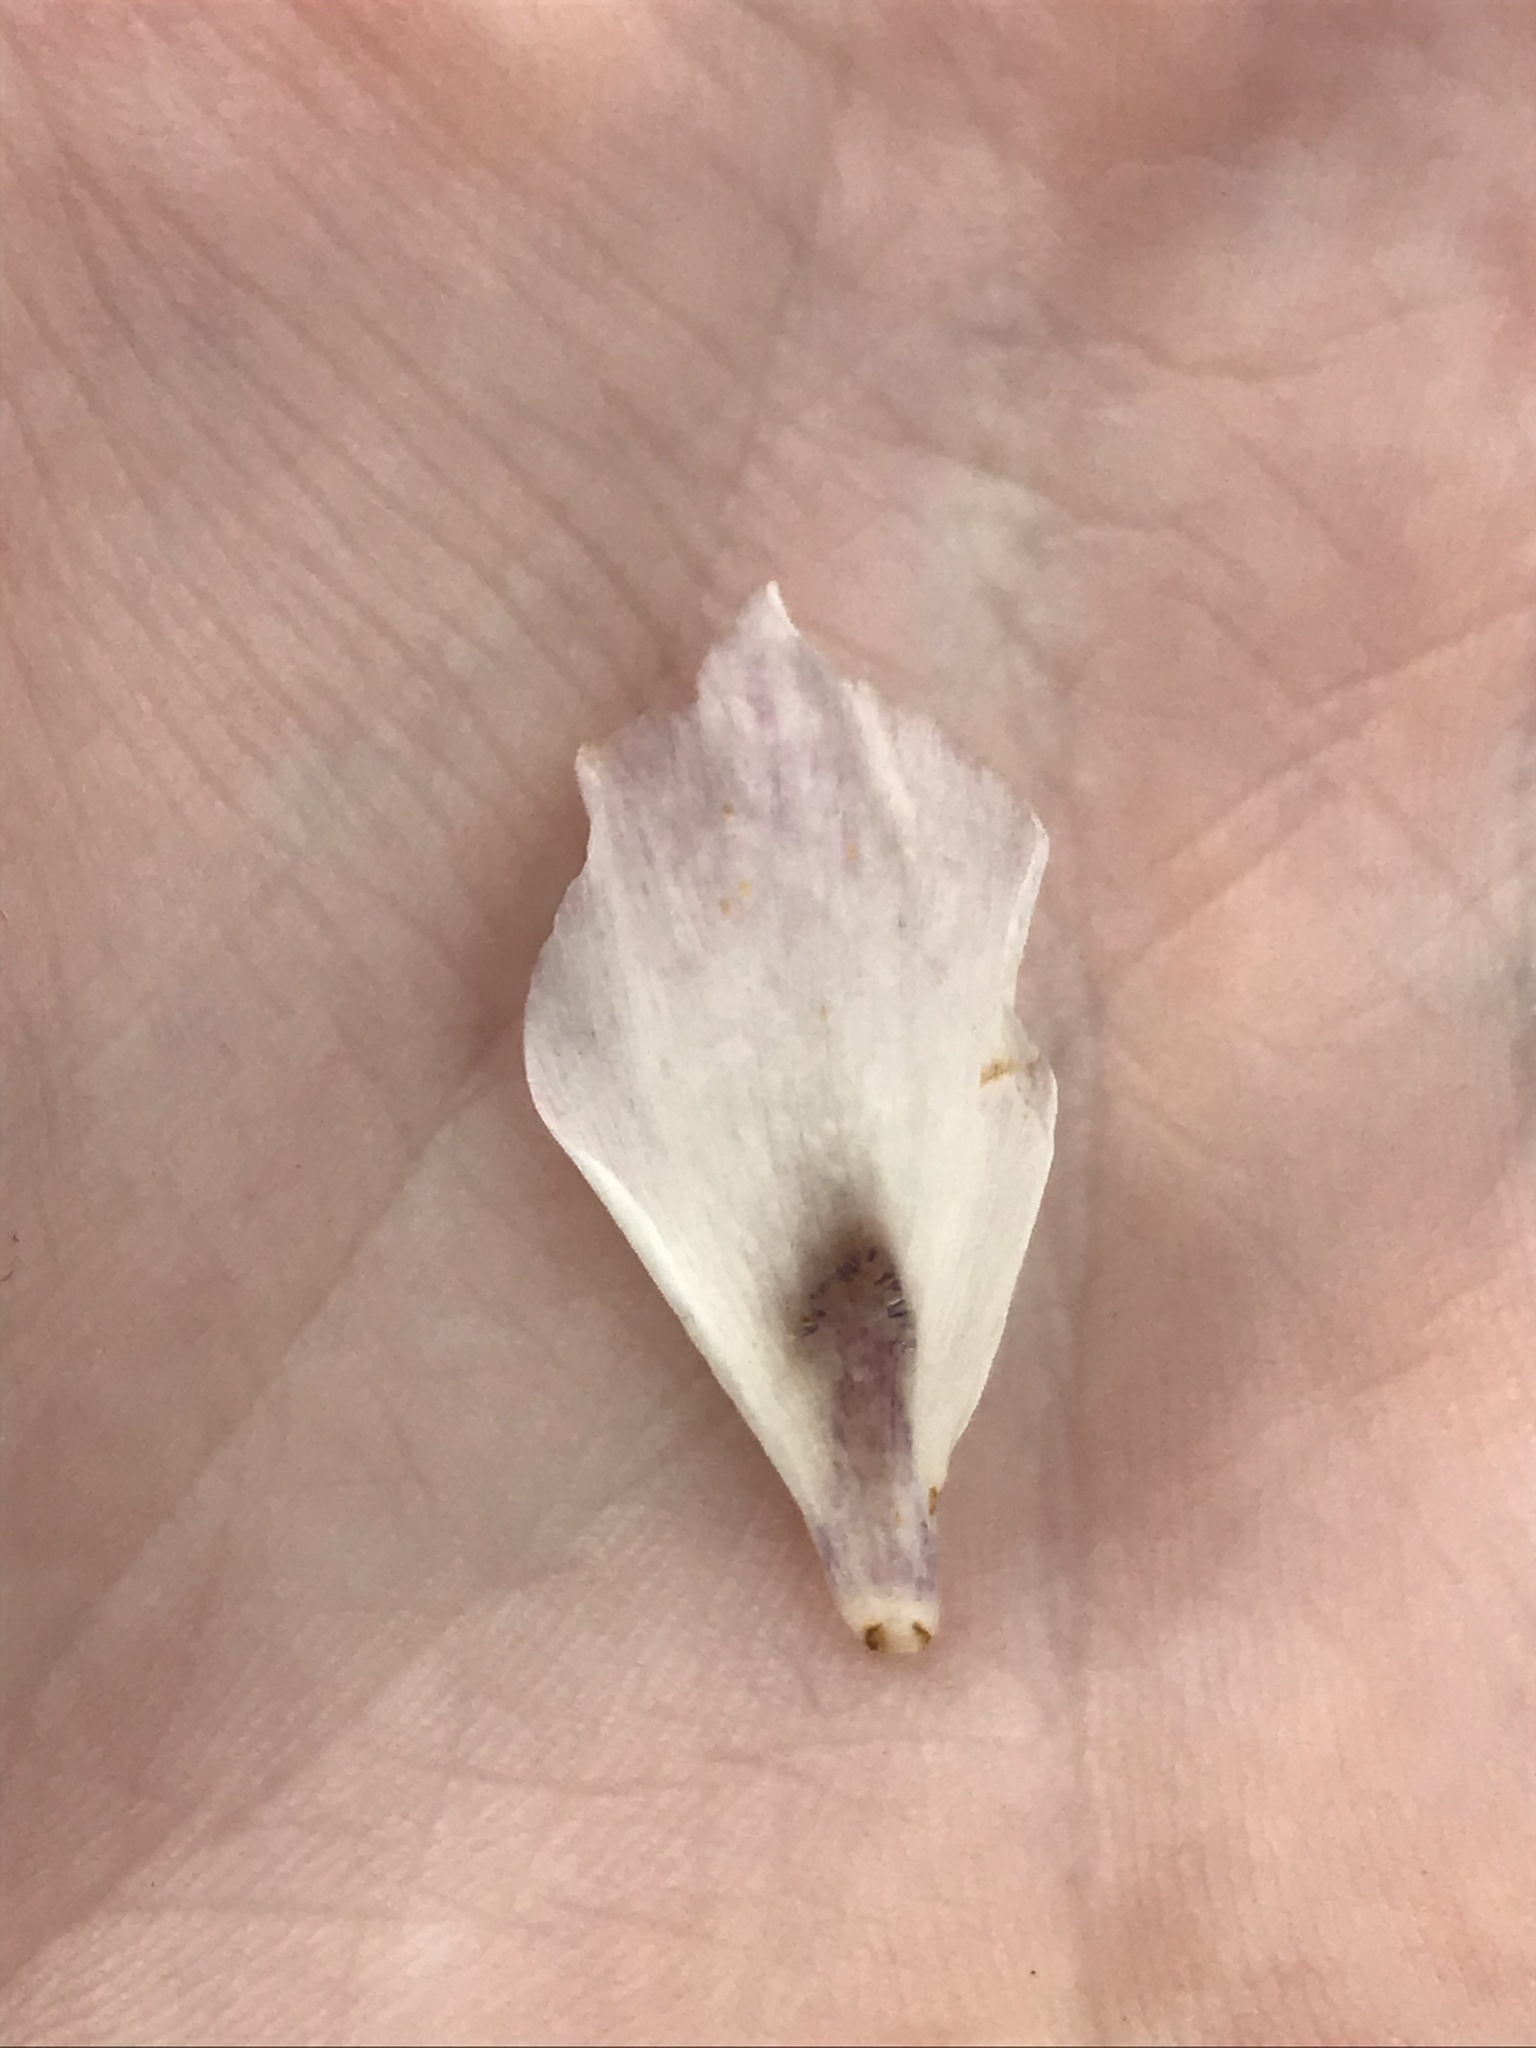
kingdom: Plantae
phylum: Tracheophyta
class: Liliopsida
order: Liliales
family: Liliaceae
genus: Calochortus
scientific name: Calochortus tolmiei
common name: Pussy-ears
